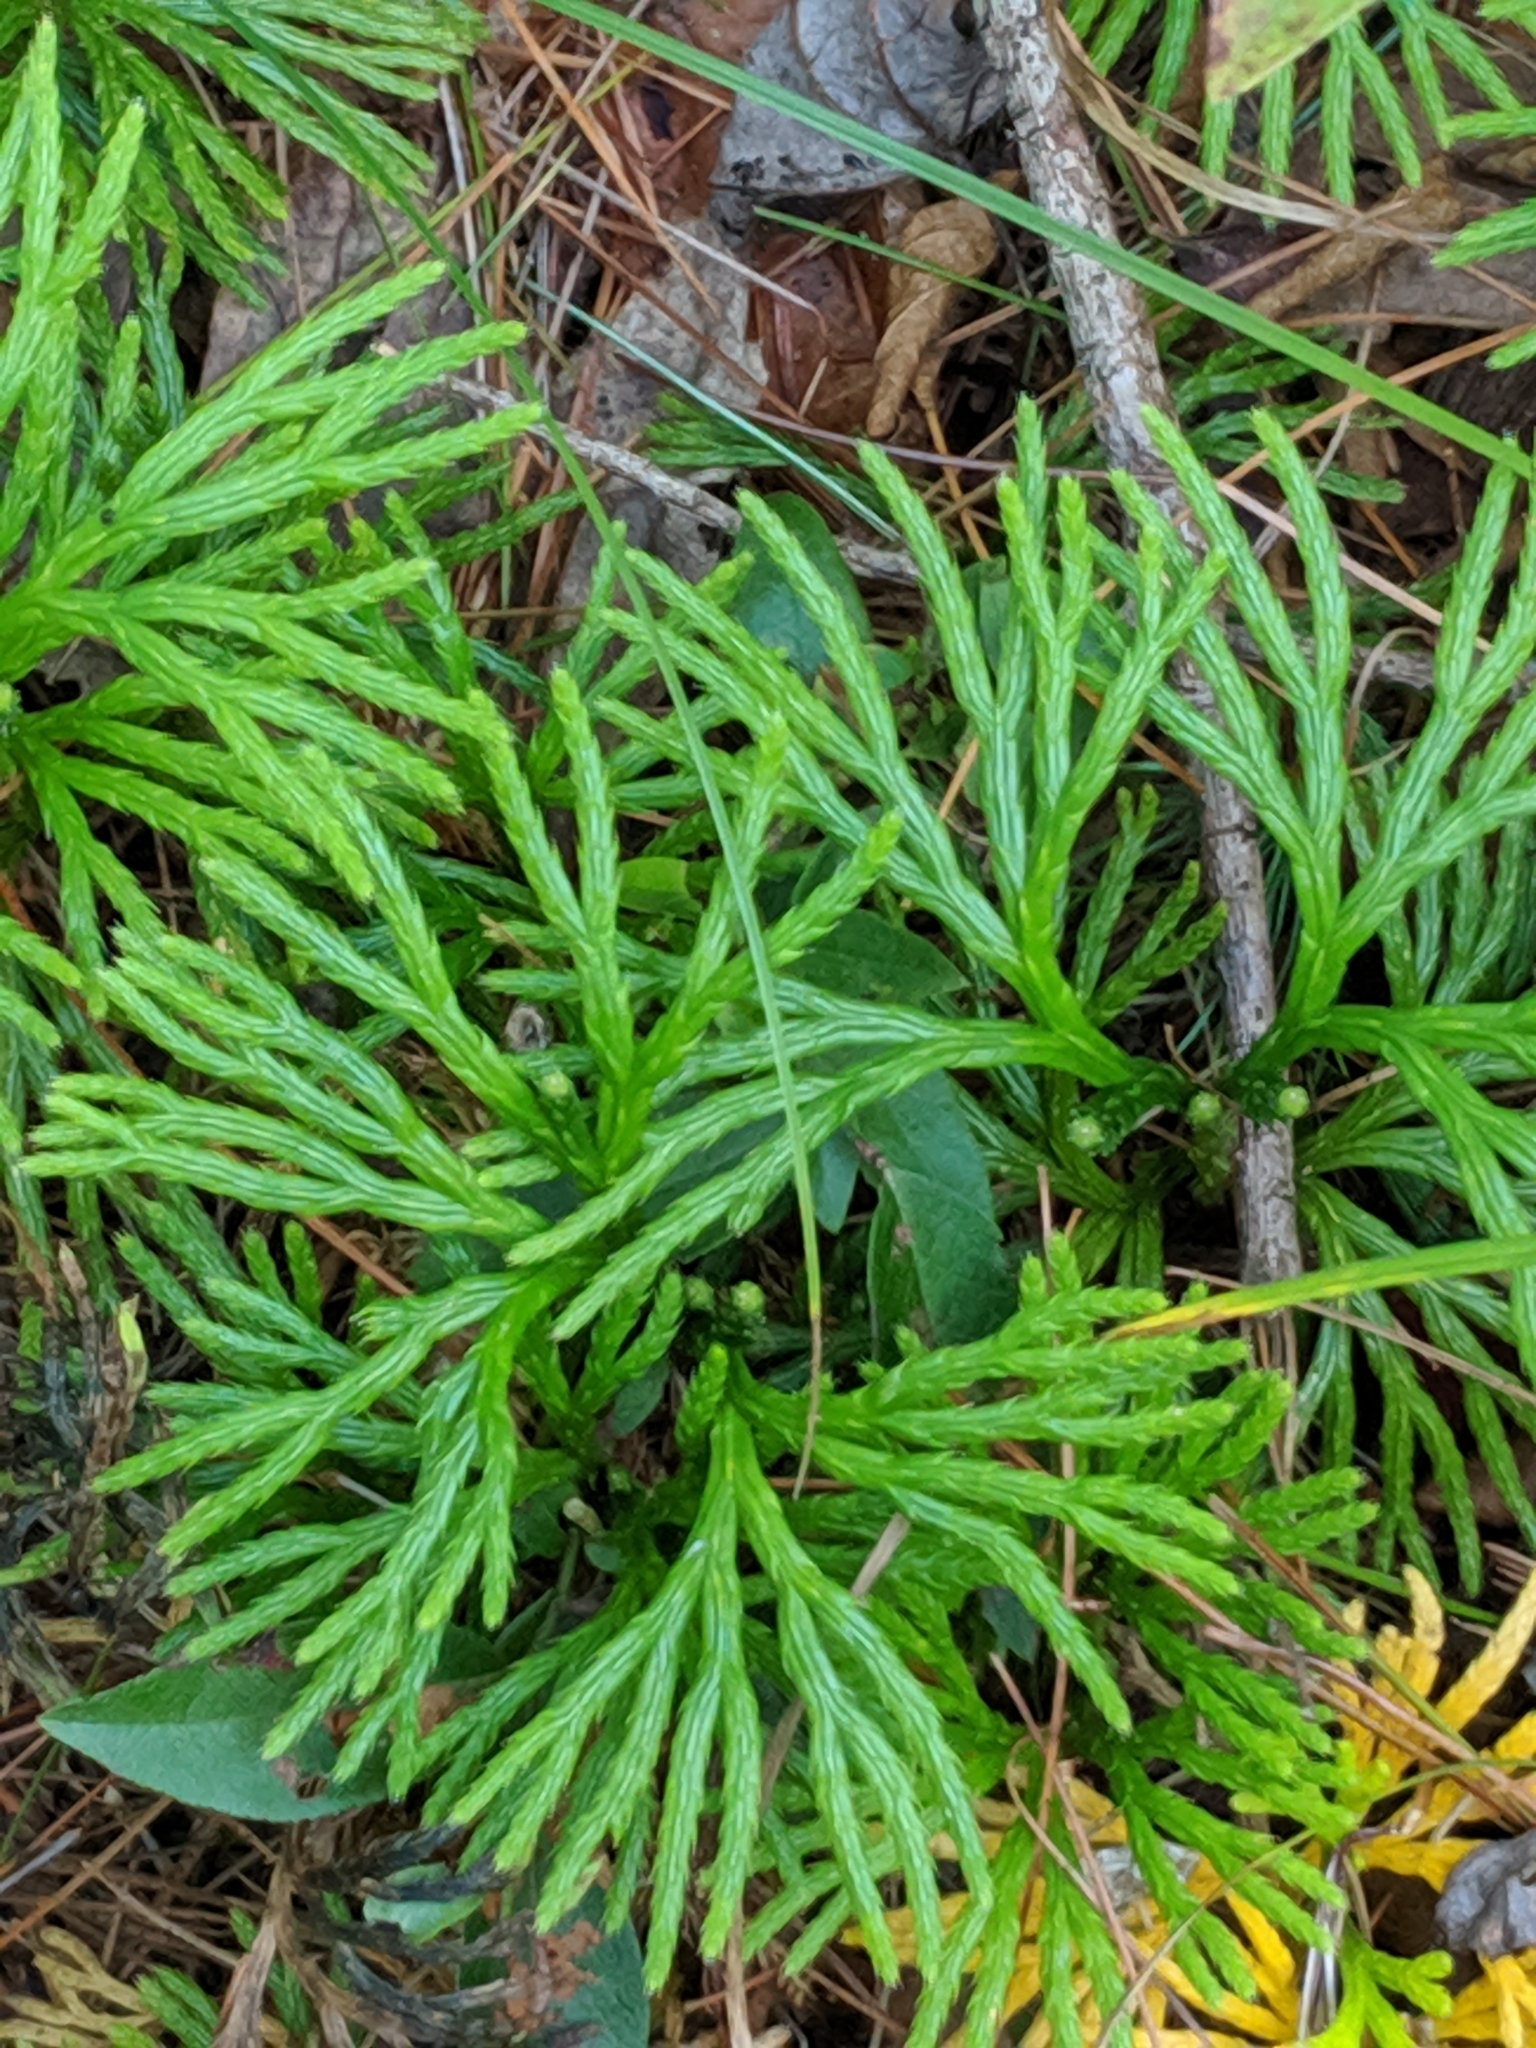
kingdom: Plantae
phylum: Tracheophyta
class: Lycopodiopsida
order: Lycopodiales
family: Lycopodiaceae
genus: Diphasiastrum
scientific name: Diphasiastrum digitatum
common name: Southern running-pine
